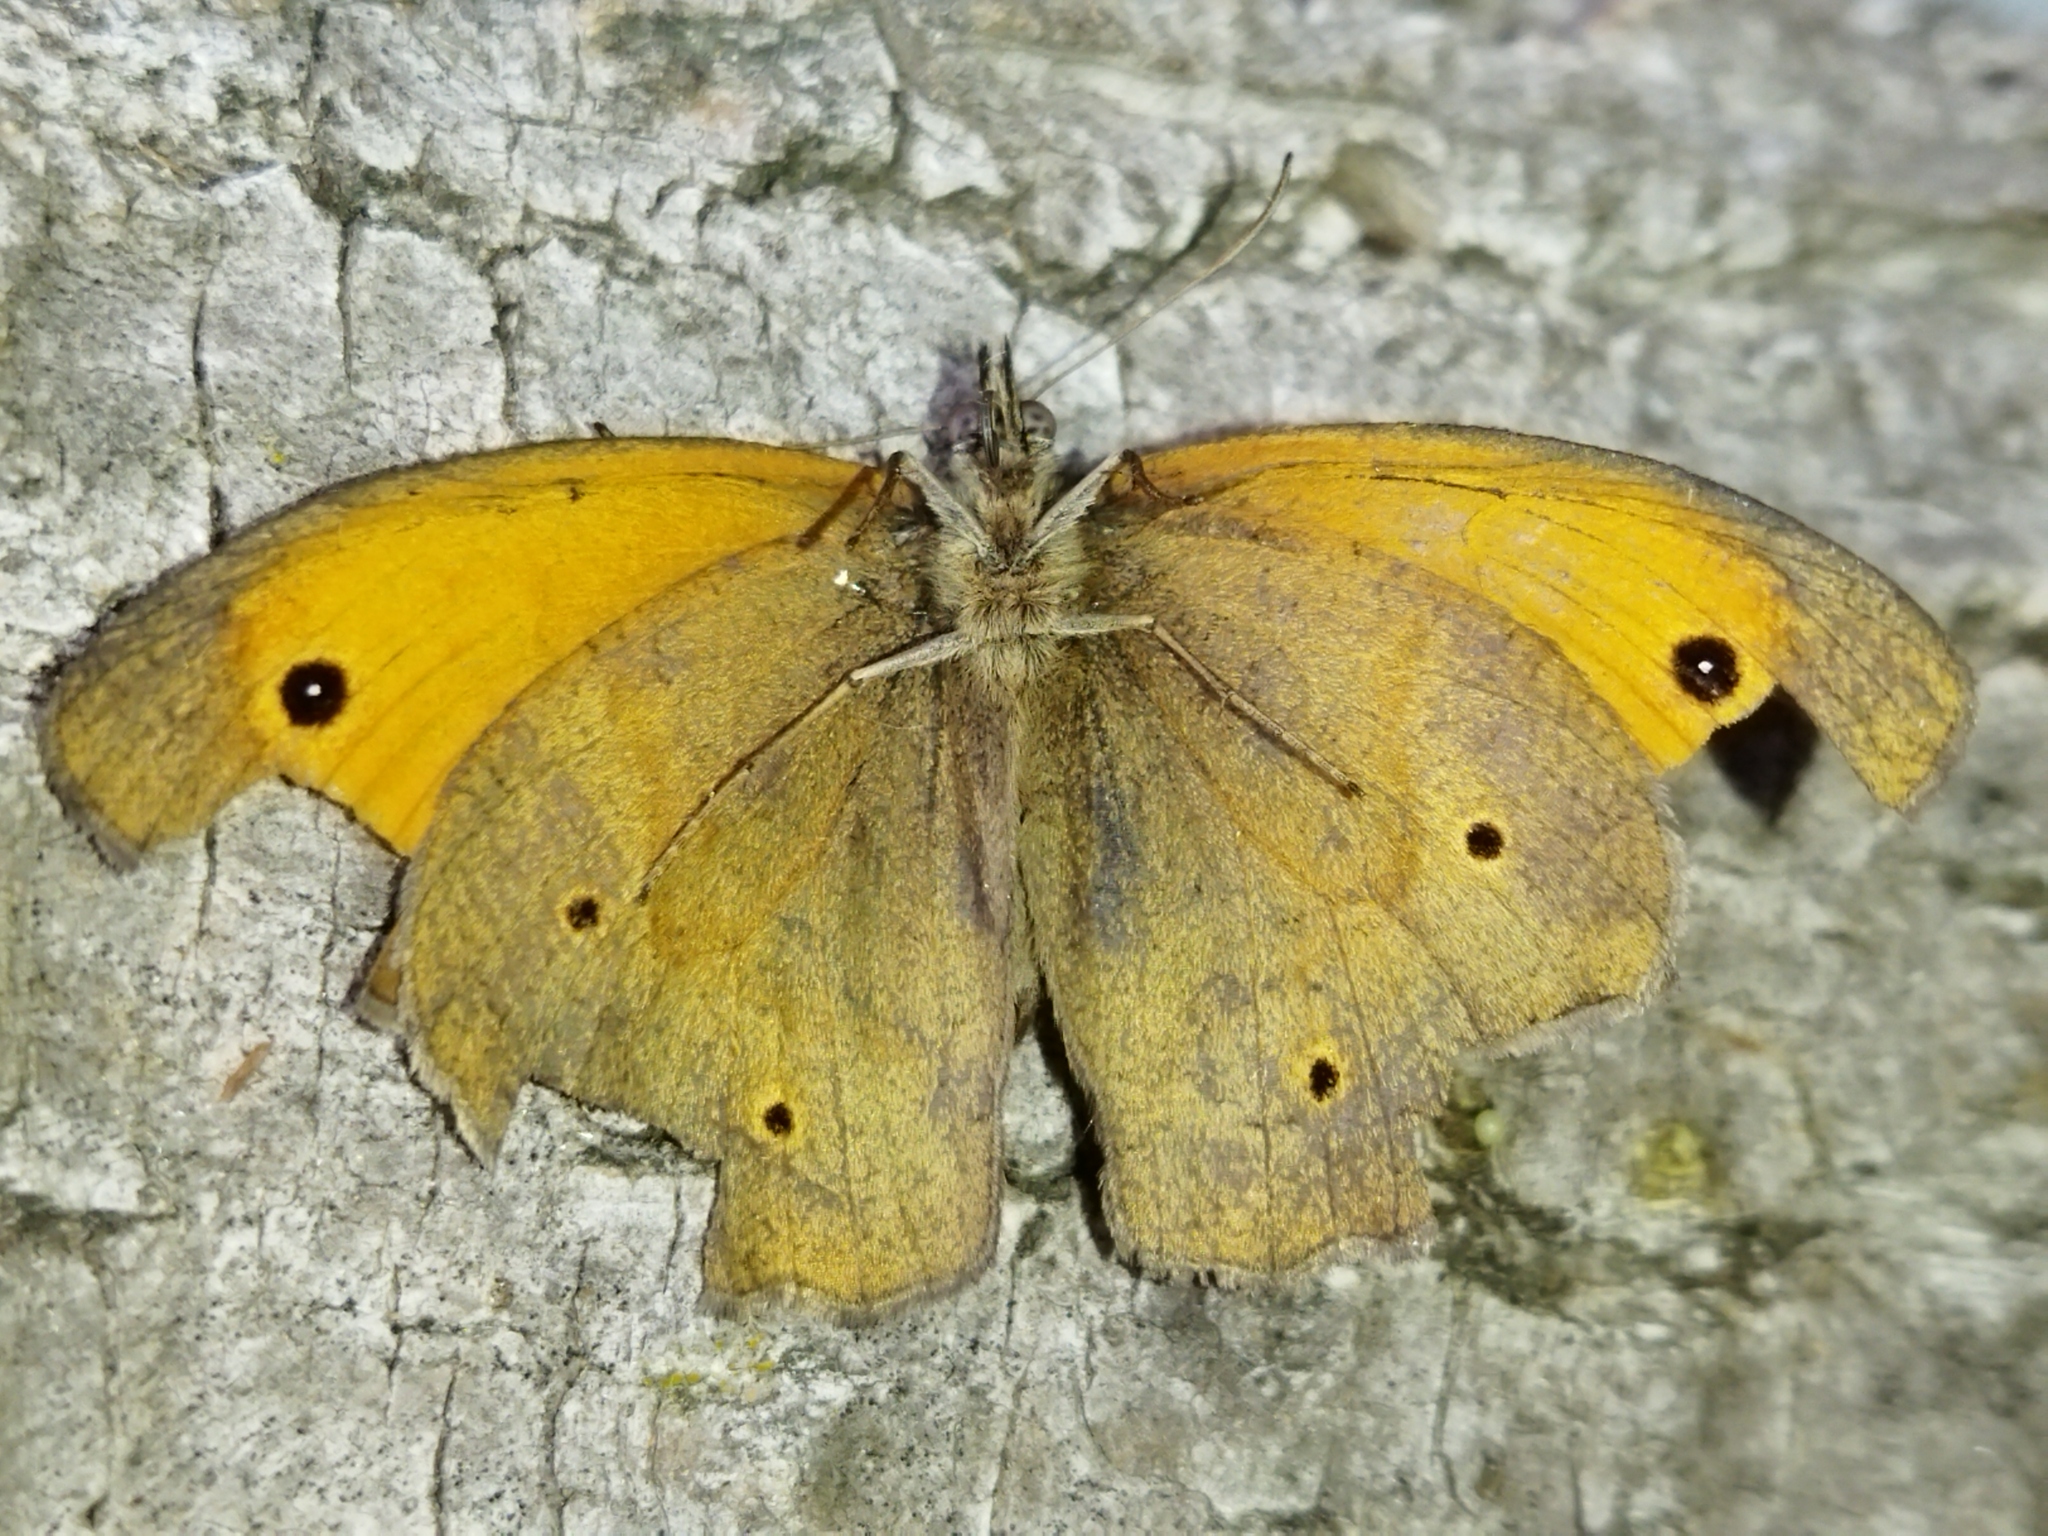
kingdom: Animalia
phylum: Arthropoda
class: Insecta
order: Lepidoptera
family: Nymphalidae
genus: Maniola
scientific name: Maniola jurtina
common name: Meadow brown
